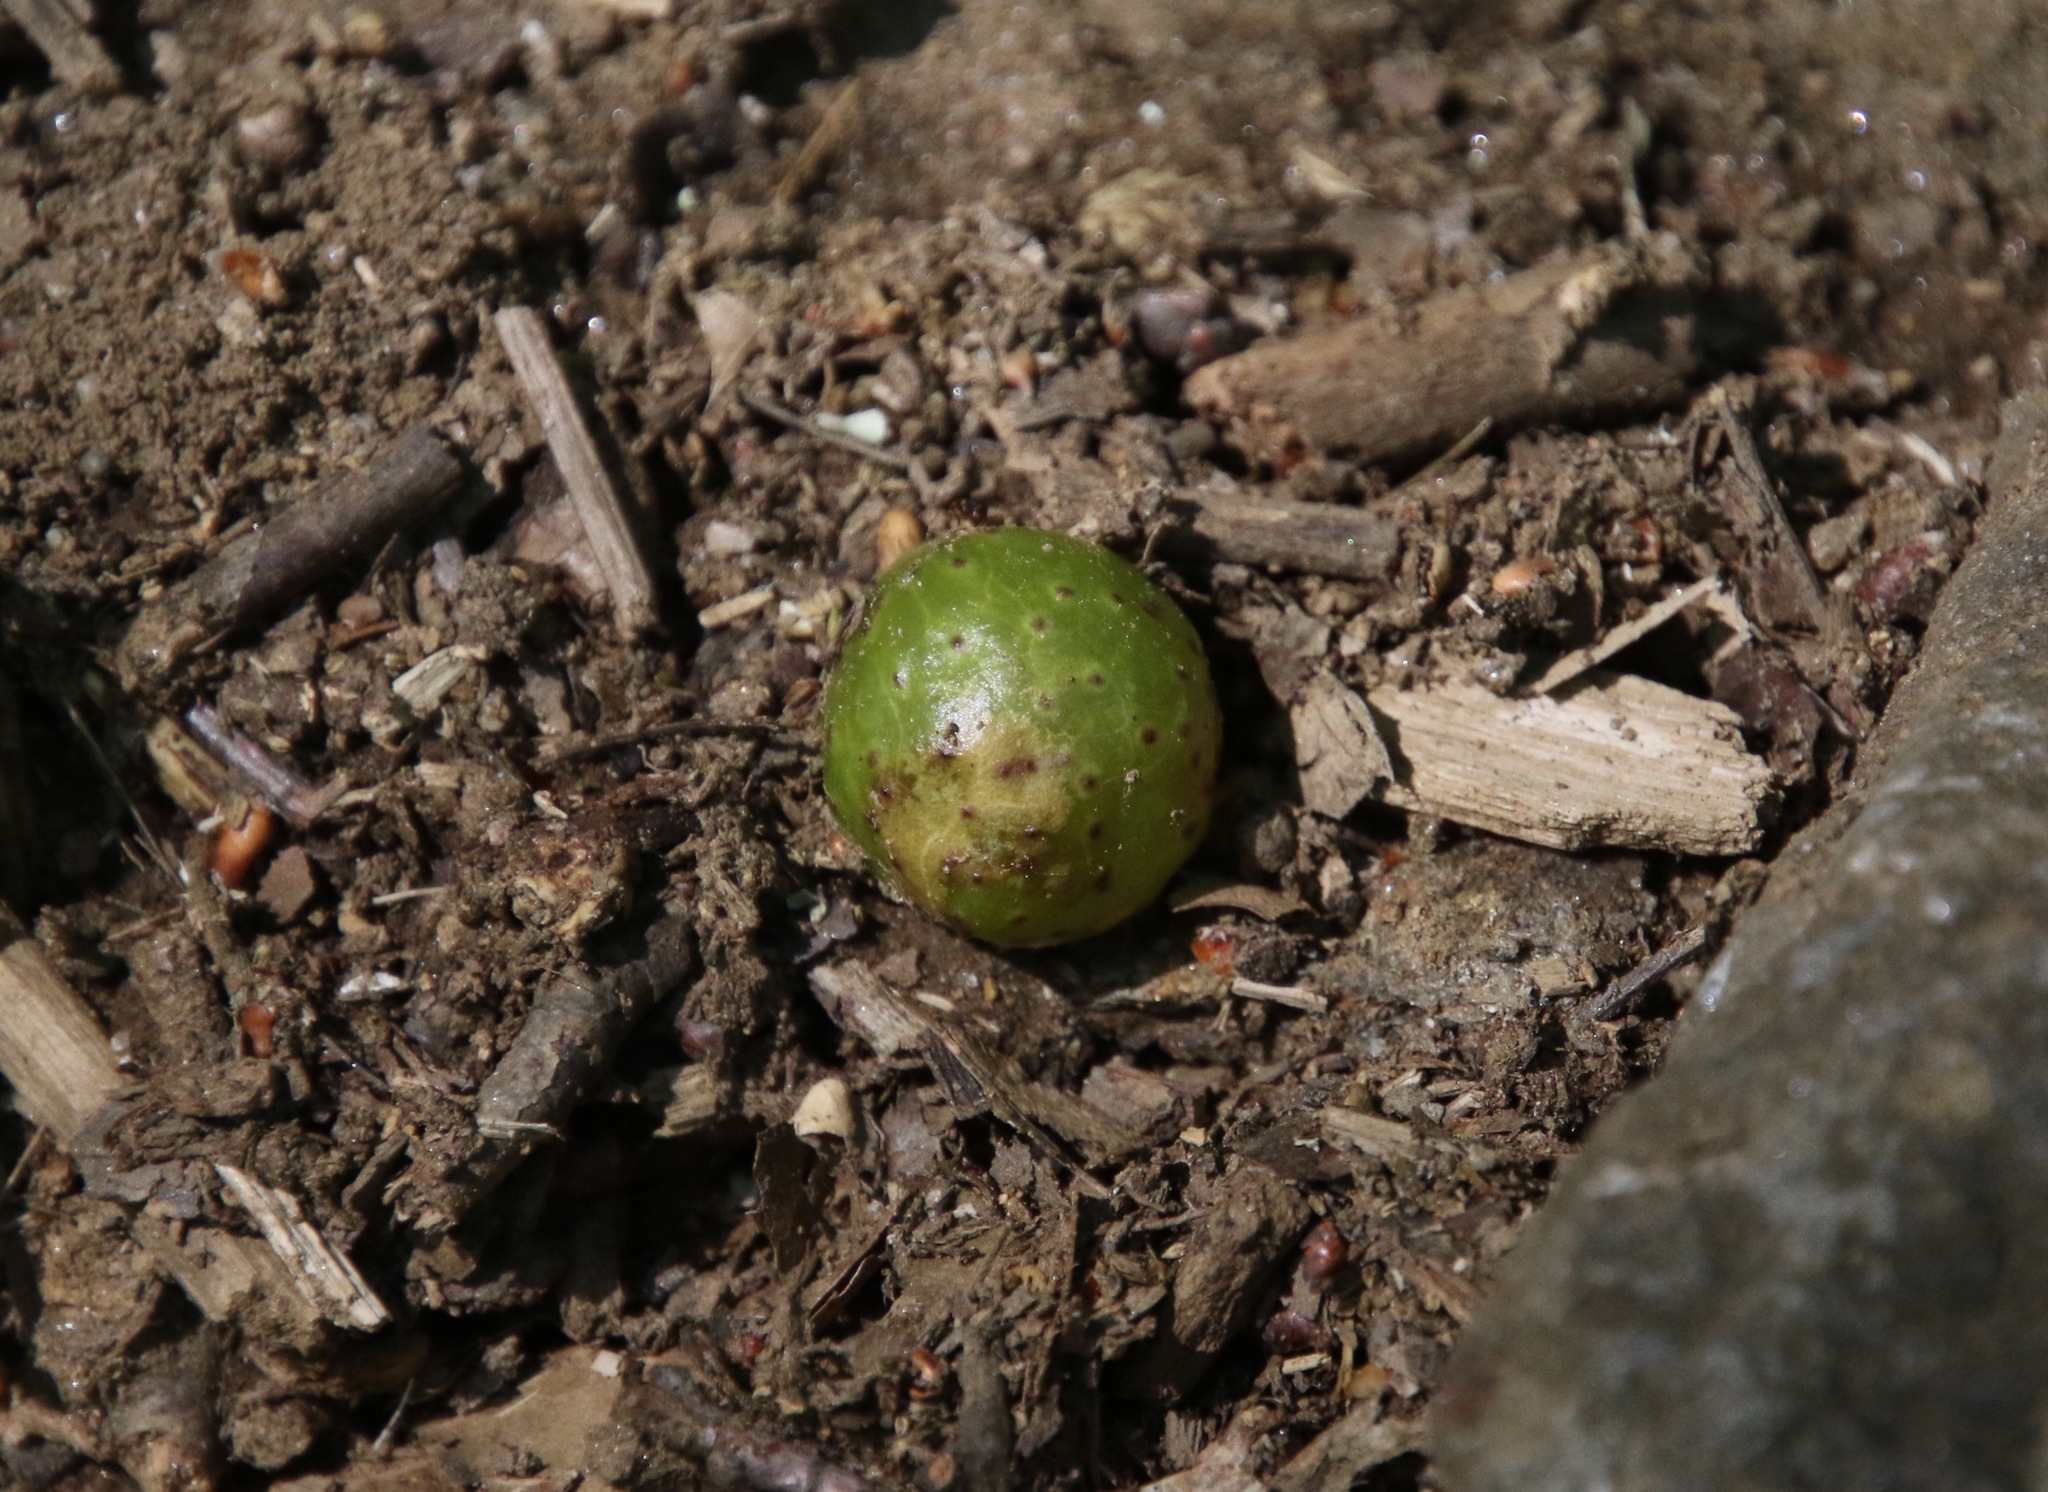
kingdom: Animalia
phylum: Arthropoda
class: Insecta
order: Hymenoptera
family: Cynipidae
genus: Amphibolips
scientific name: Amphibolips
